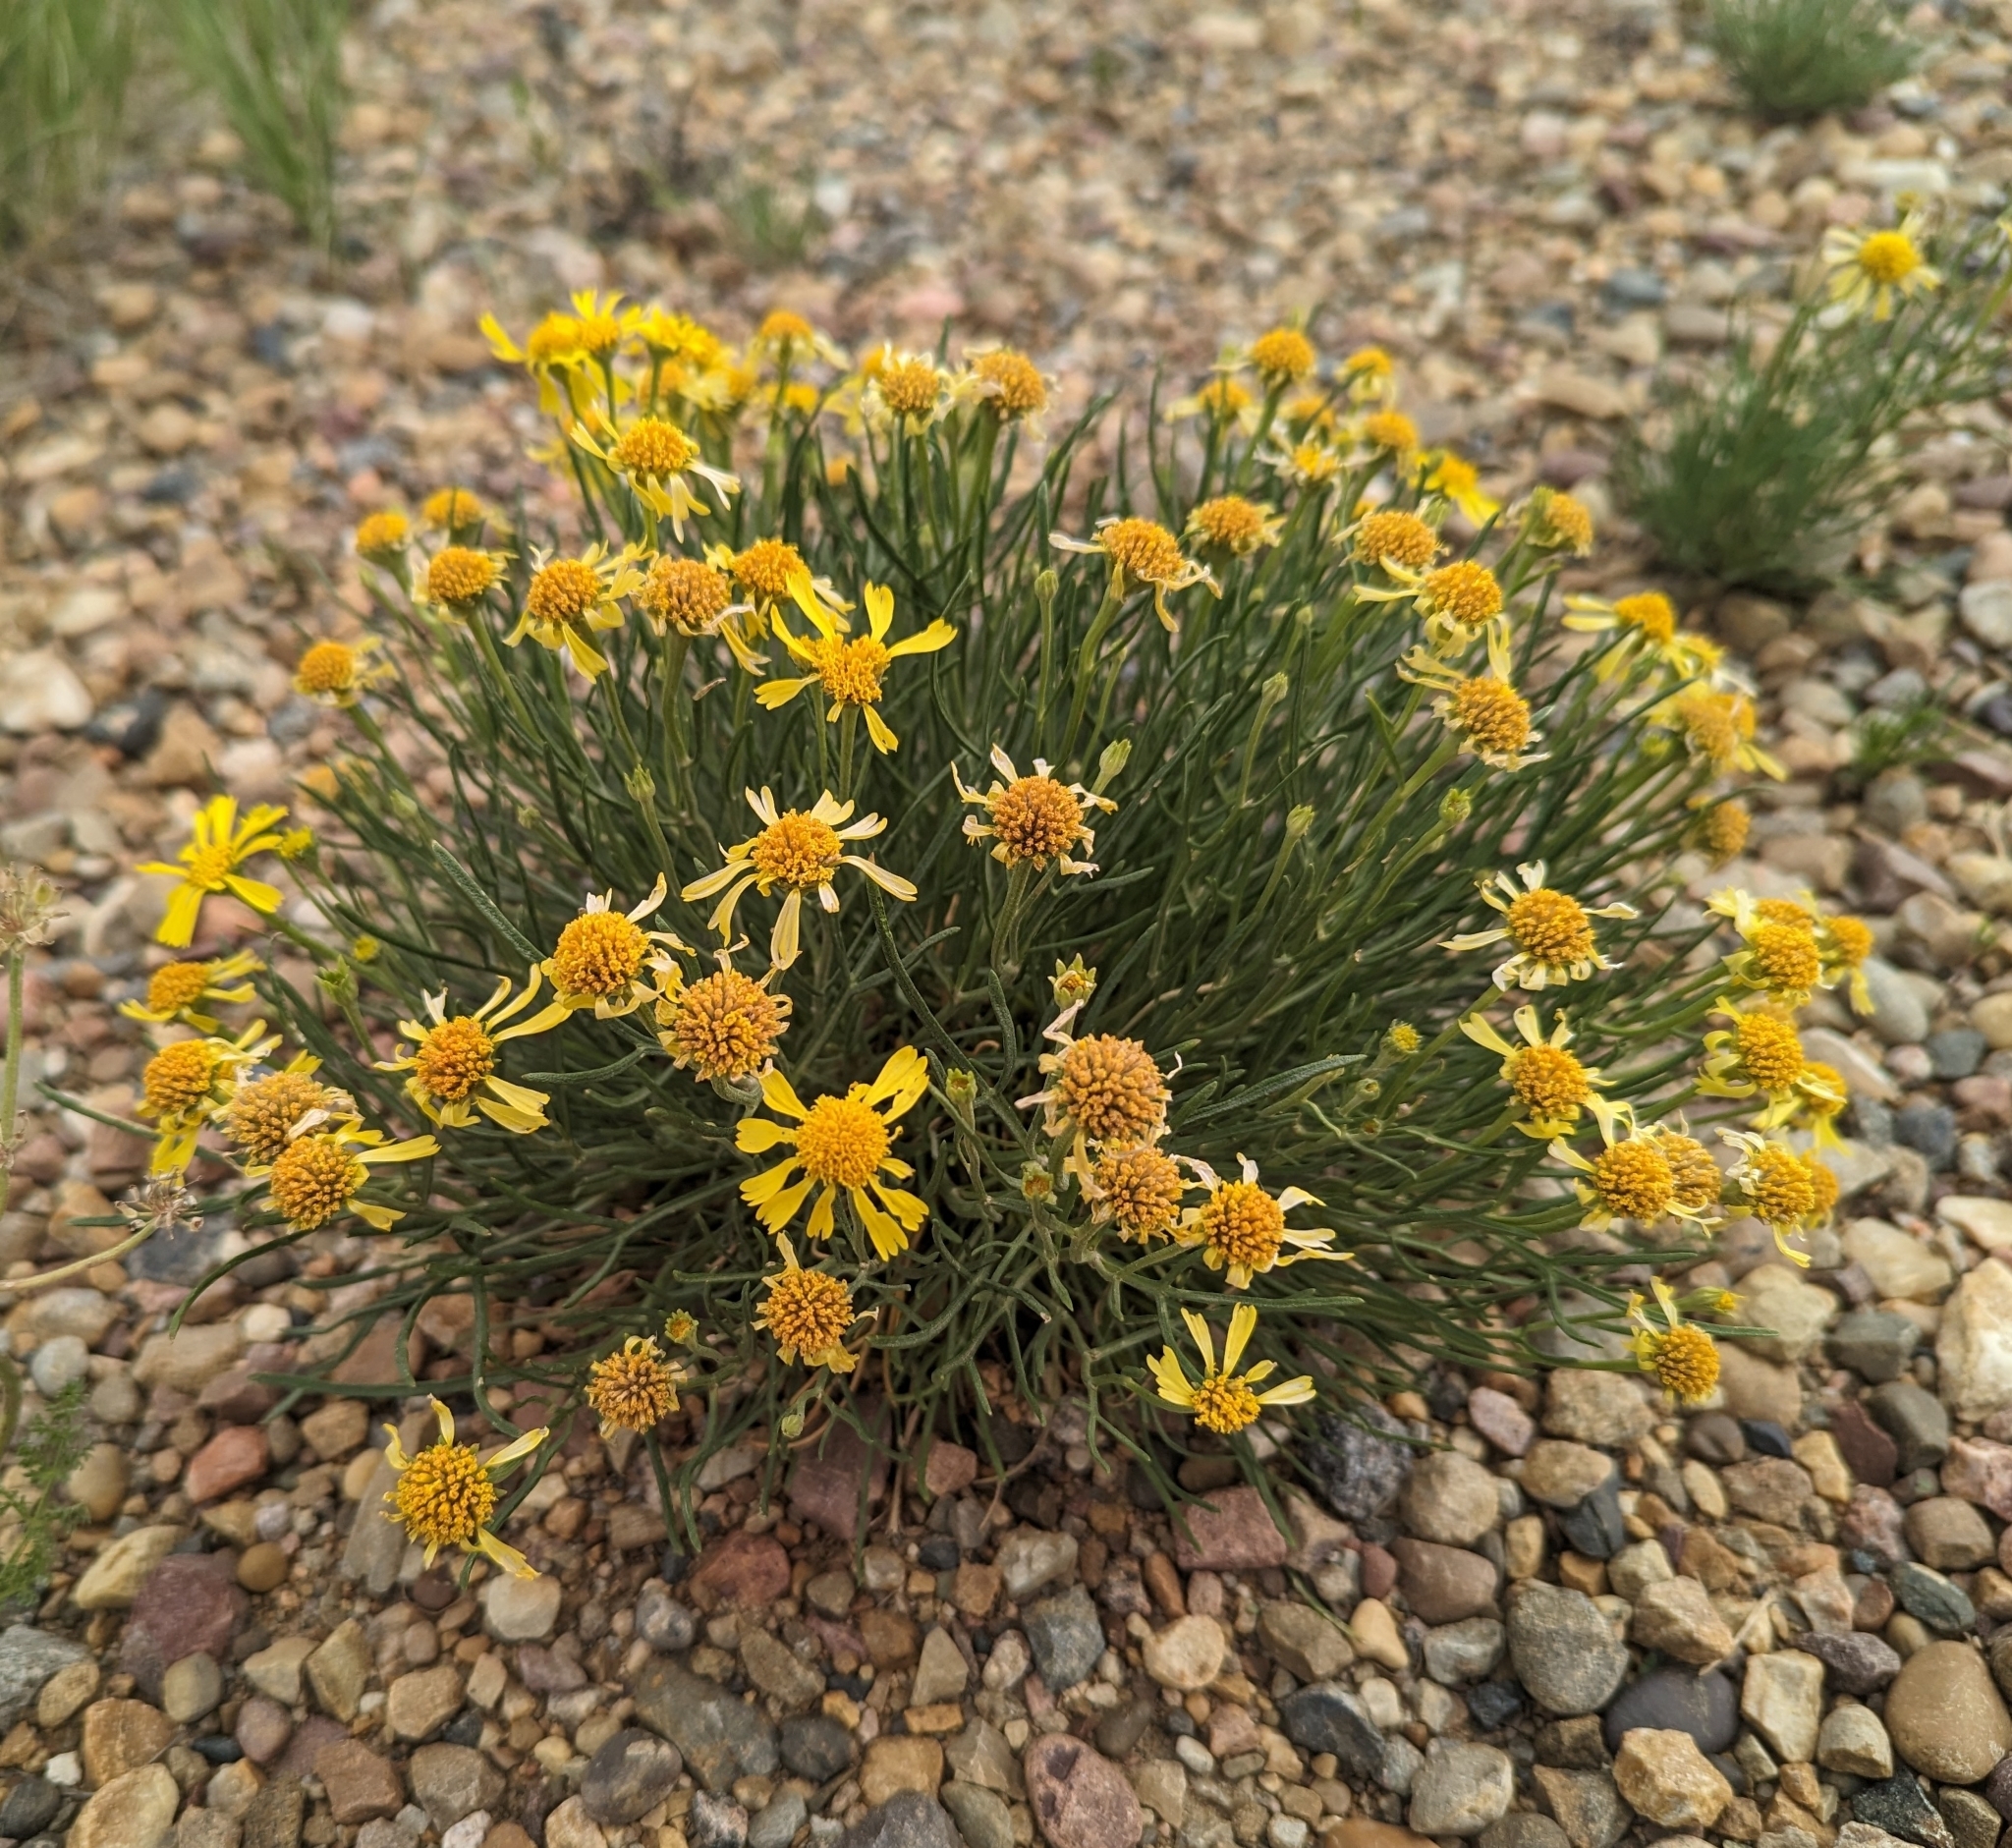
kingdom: Plantae
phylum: Tracheophyta
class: Magnoliopsida
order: Asterales
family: Asteraceae
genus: Hymenoxys
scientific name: Hymenoxys richardsonii
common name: Pingue rubberweed
